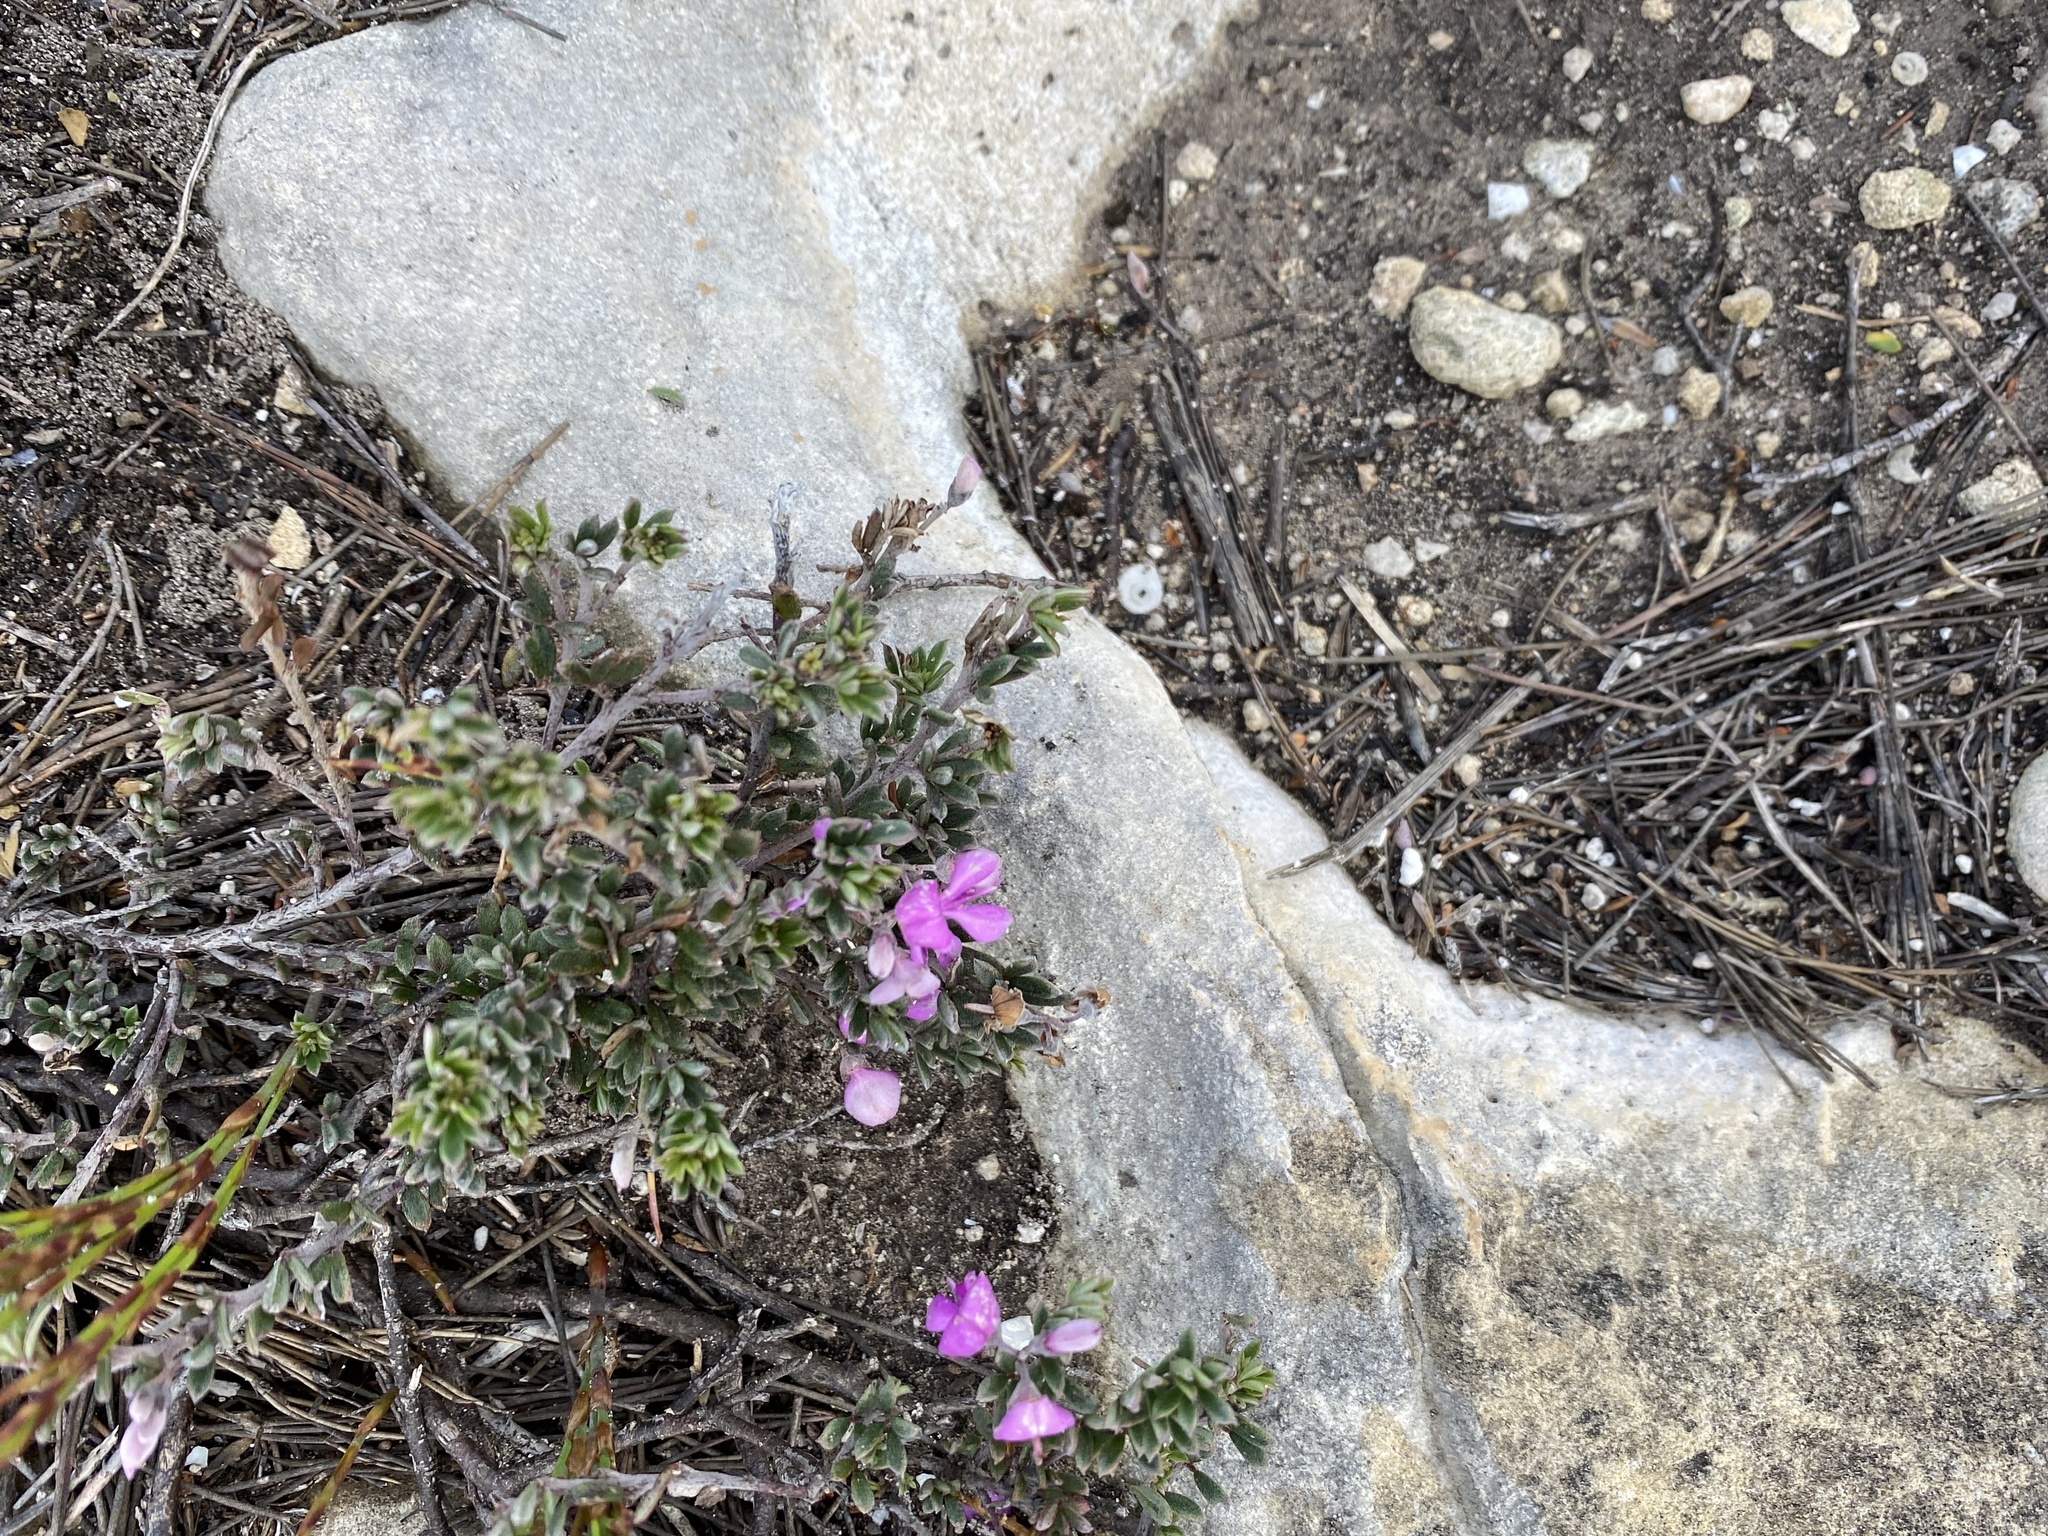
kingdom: Plantae
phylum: Tracheophyta
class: Magnoliopsida
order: Fabales
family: Fabaceae
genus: Indigofera
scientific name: Indigofera
